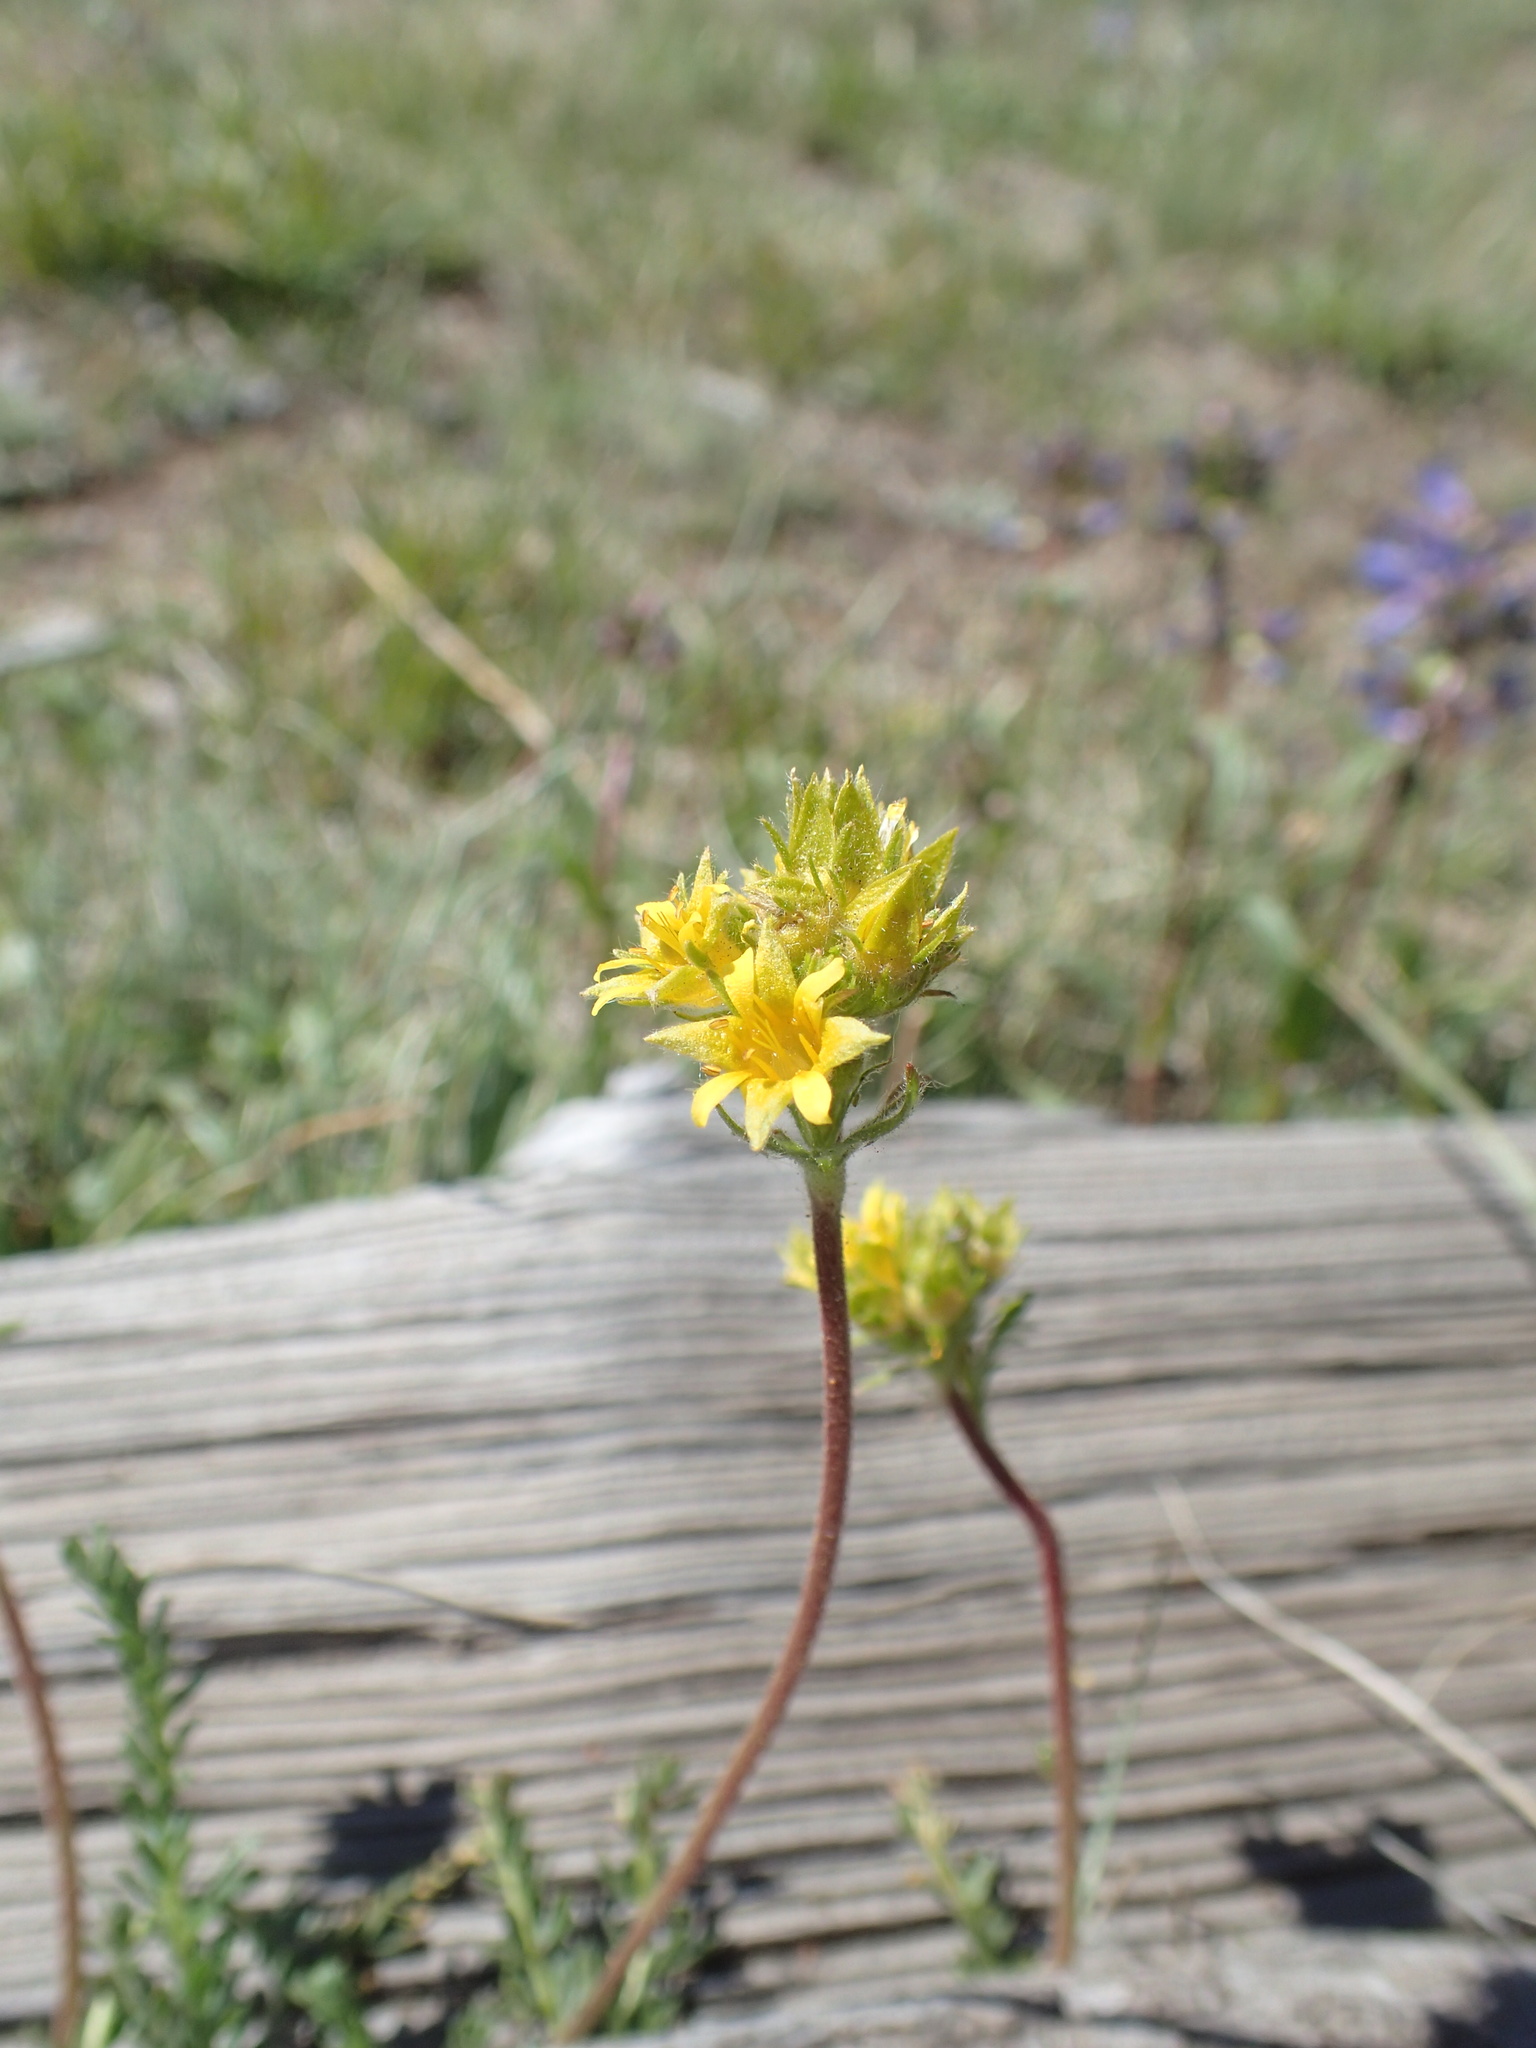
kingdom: Plantae
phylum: Tracheophyta
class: Magnoliopsida
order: Rosales
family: Rosaceae
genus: Potentilla
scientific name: Potentilla gordonii
